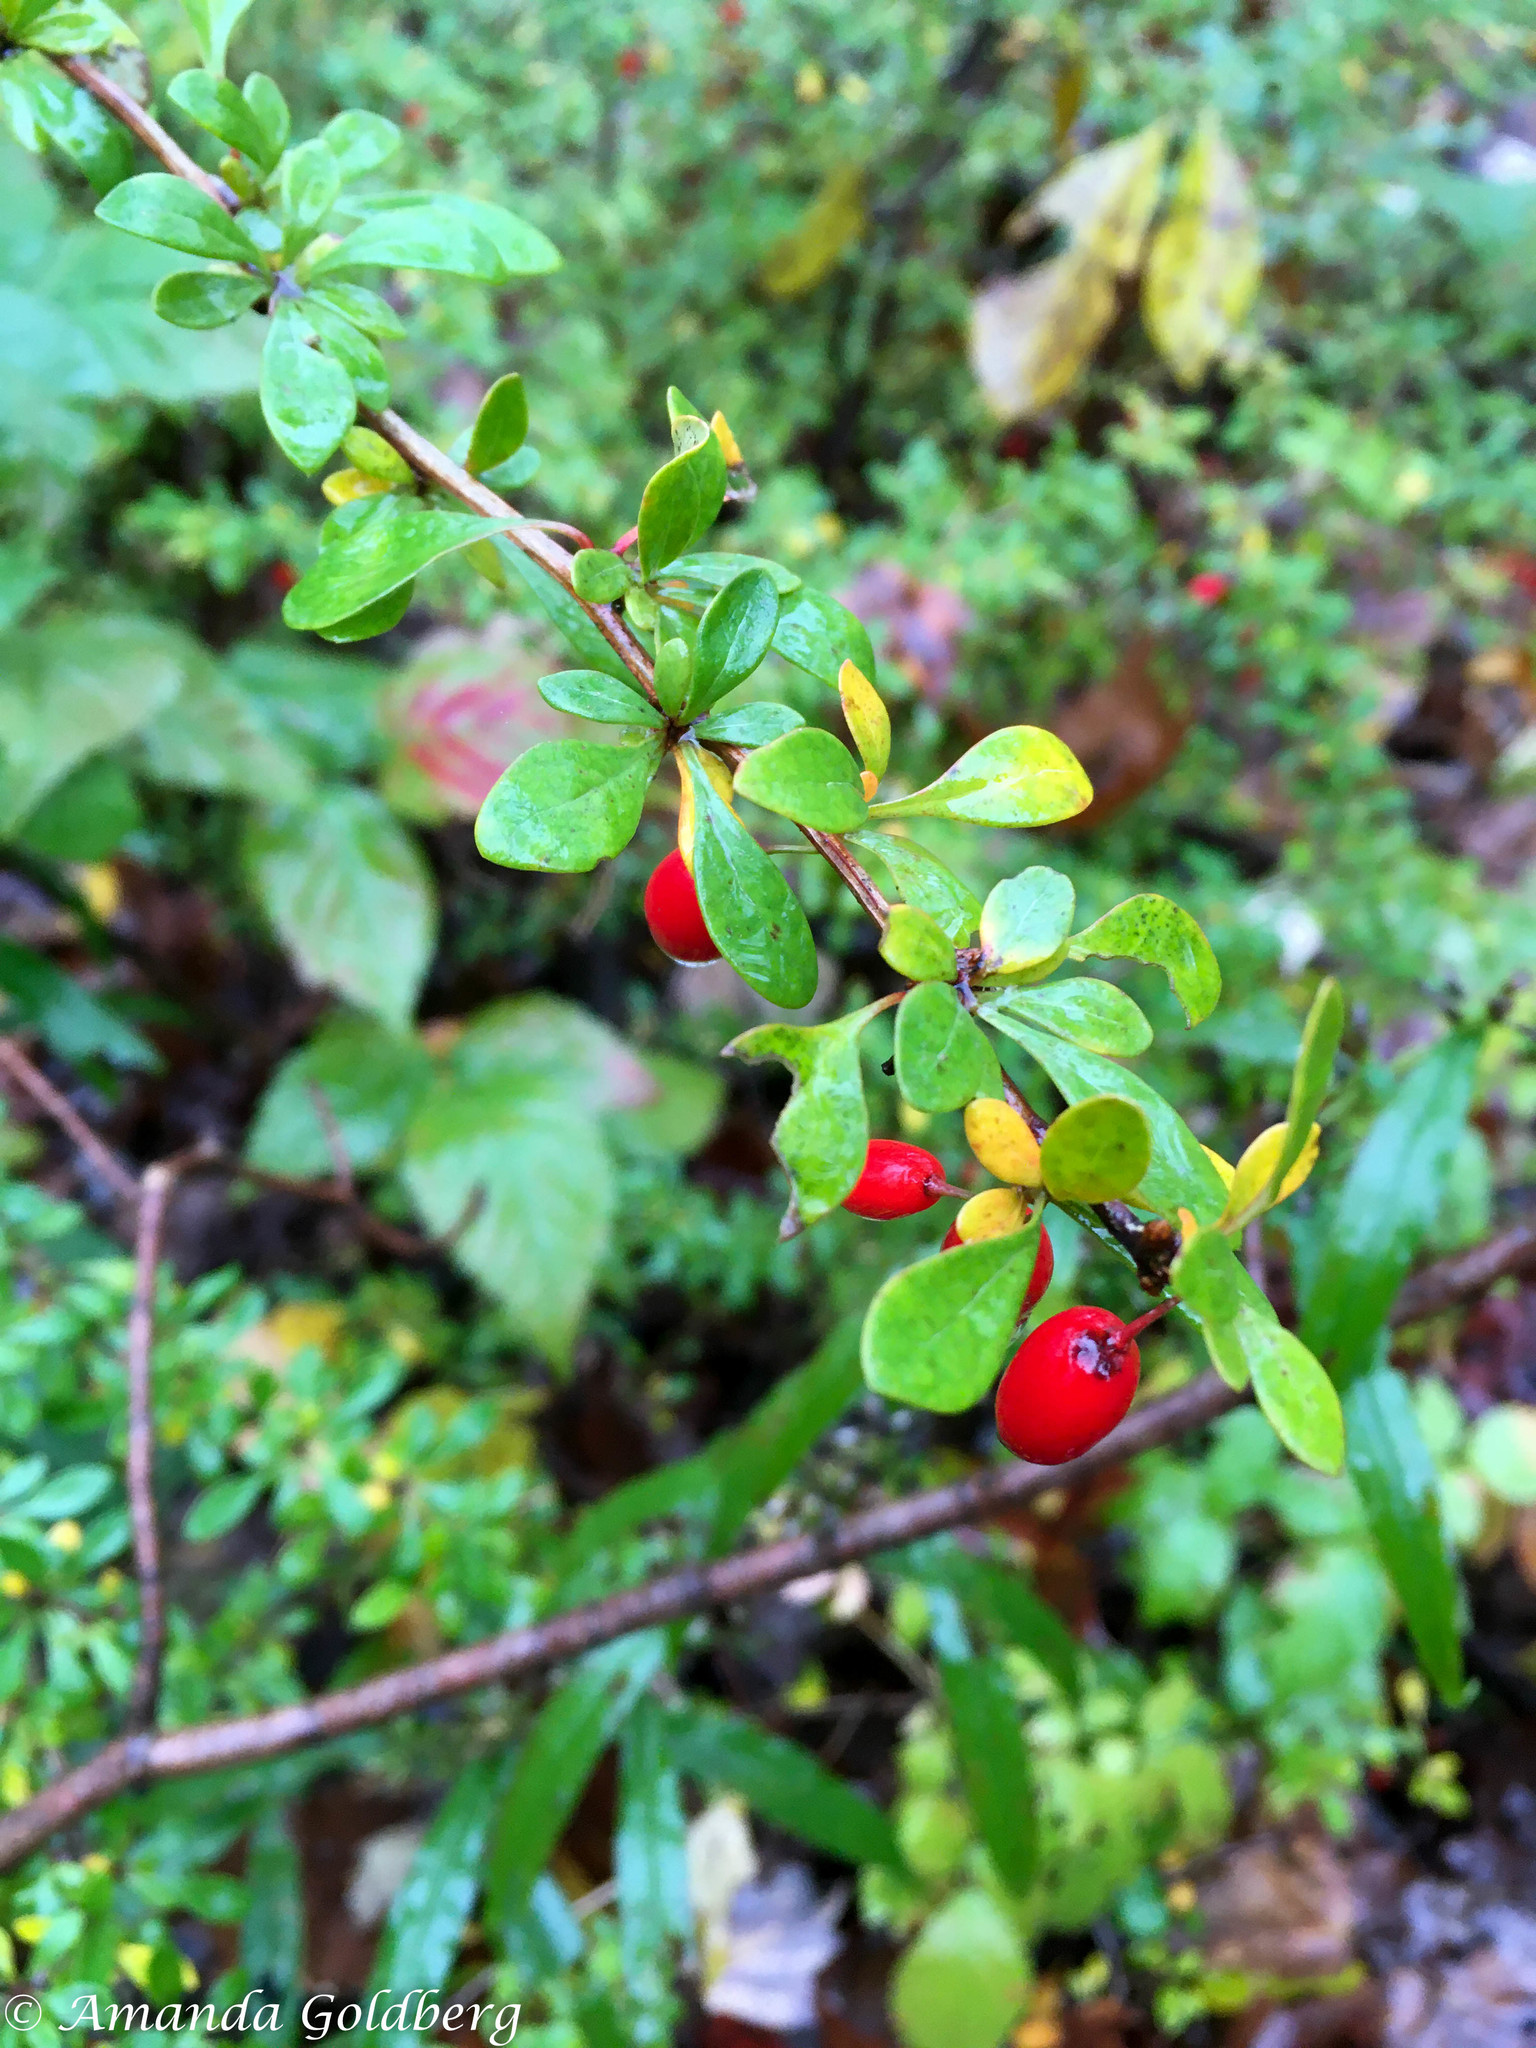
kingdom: Plantae
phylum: Tracheophyta
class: Magnoliopsida
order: Ranunculales
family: Berberidaceae
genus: Berberis
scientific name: Berberis thunbergii
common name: Japanese barberry
